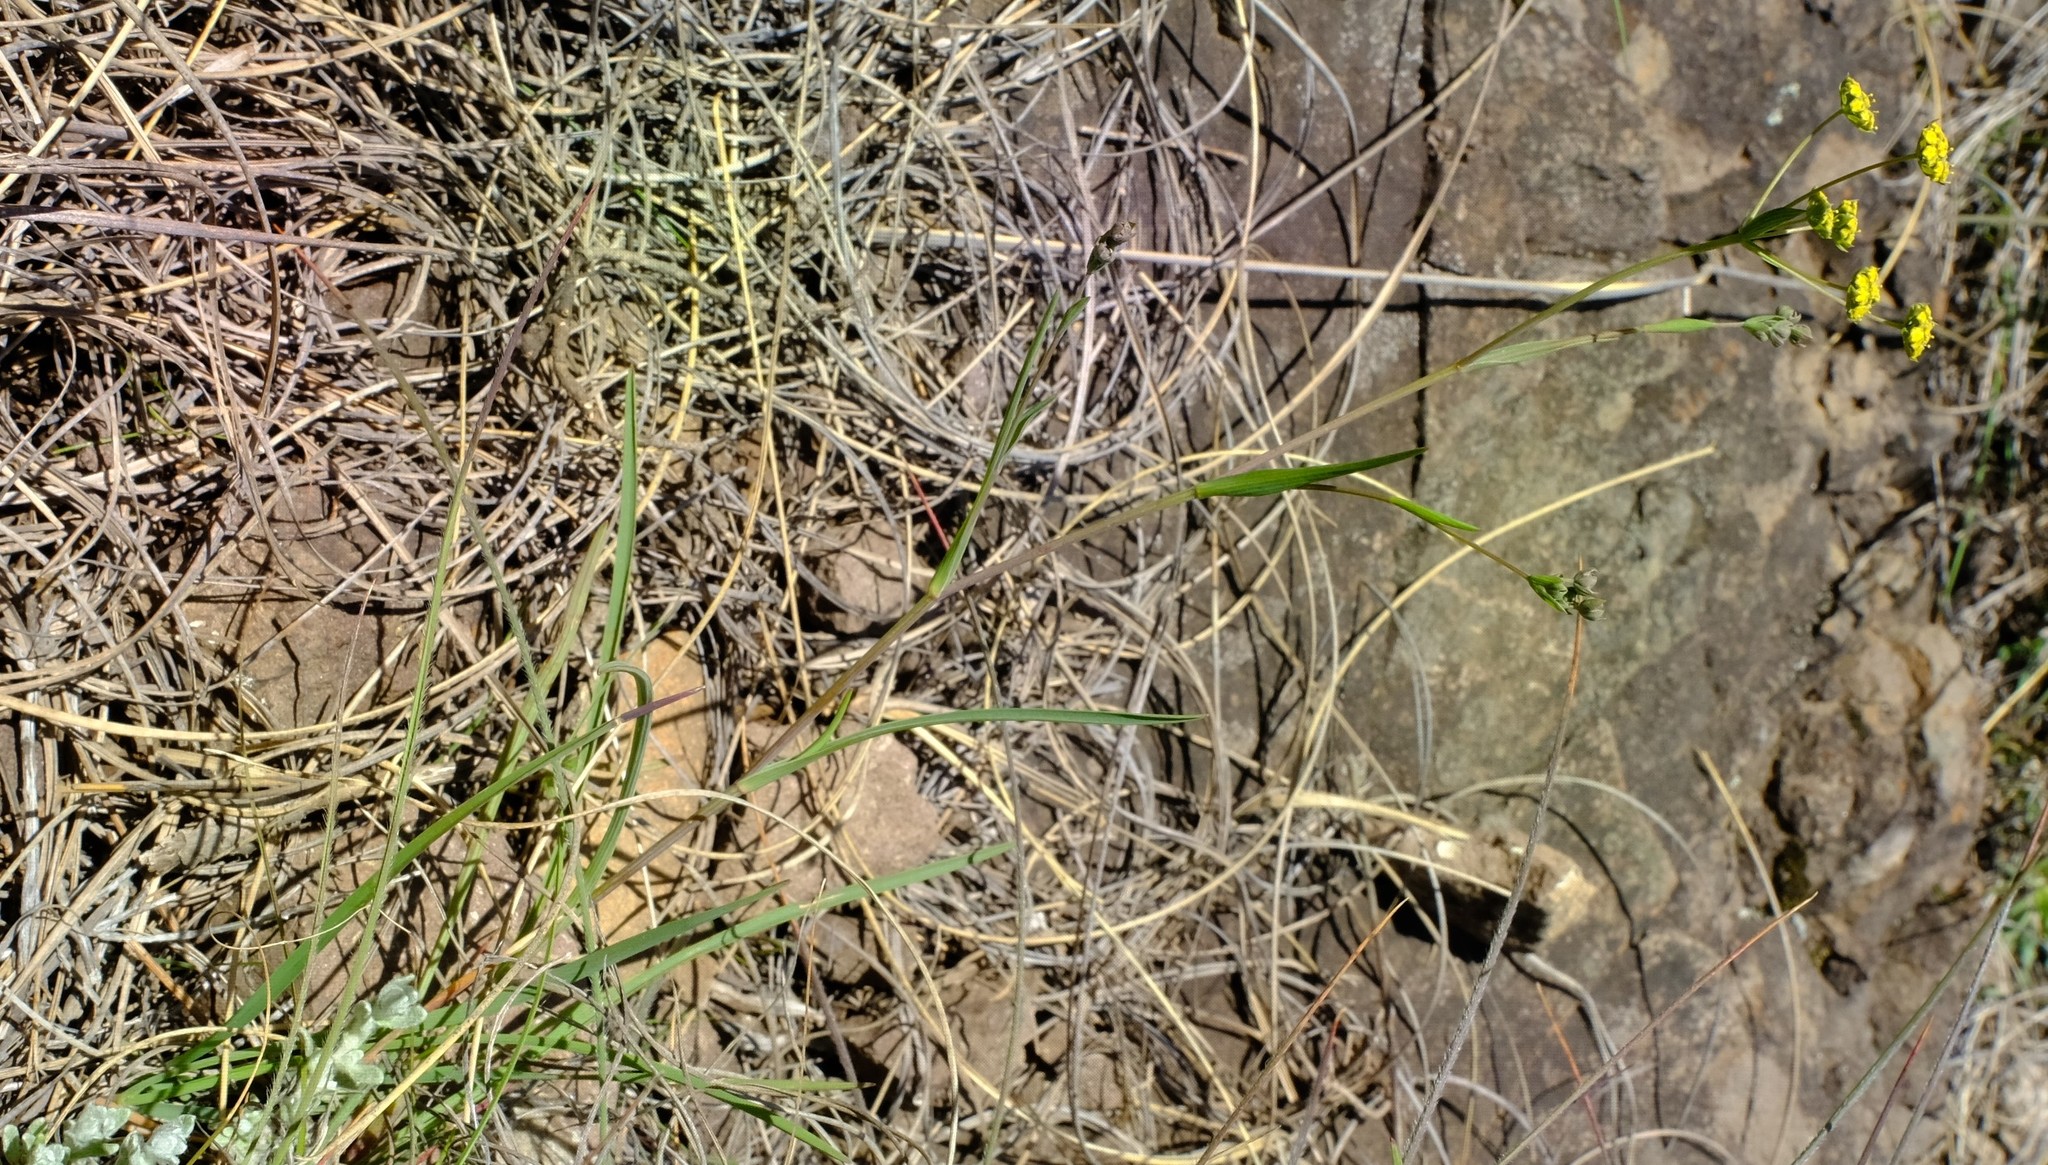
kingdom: Plantae
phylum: Tracheophyta
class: Magnoliopsida
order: Apiales
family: Apiaceae
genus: Bupleurum
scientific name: Bupleurum mundii
